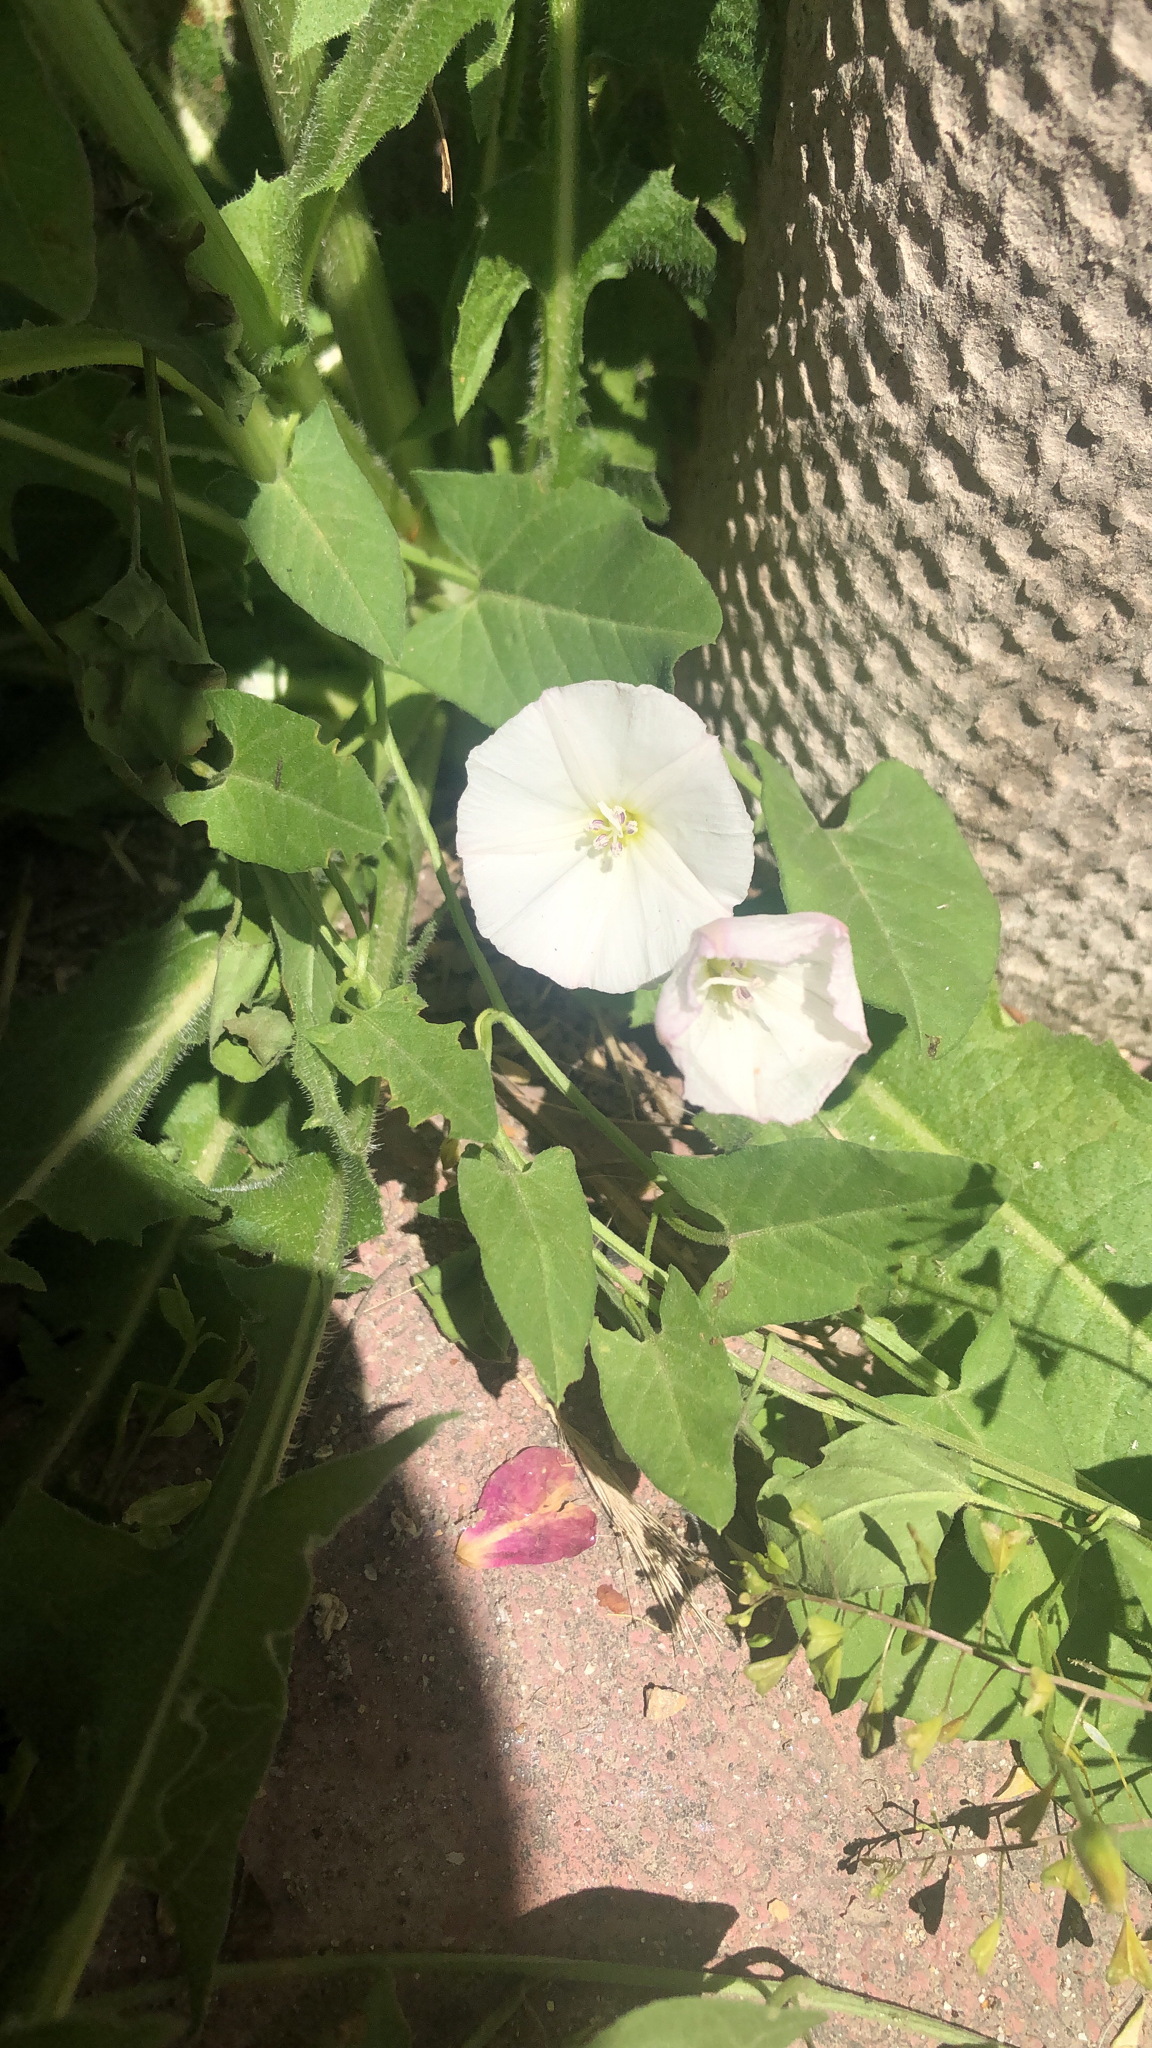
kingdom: Plantae
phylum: Tracheophyta
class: Magnoliopsida
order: Solanales
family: Convolvulaceae
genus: Convolvulus
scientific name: Convolvulus arvensis
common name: Field bindweed
